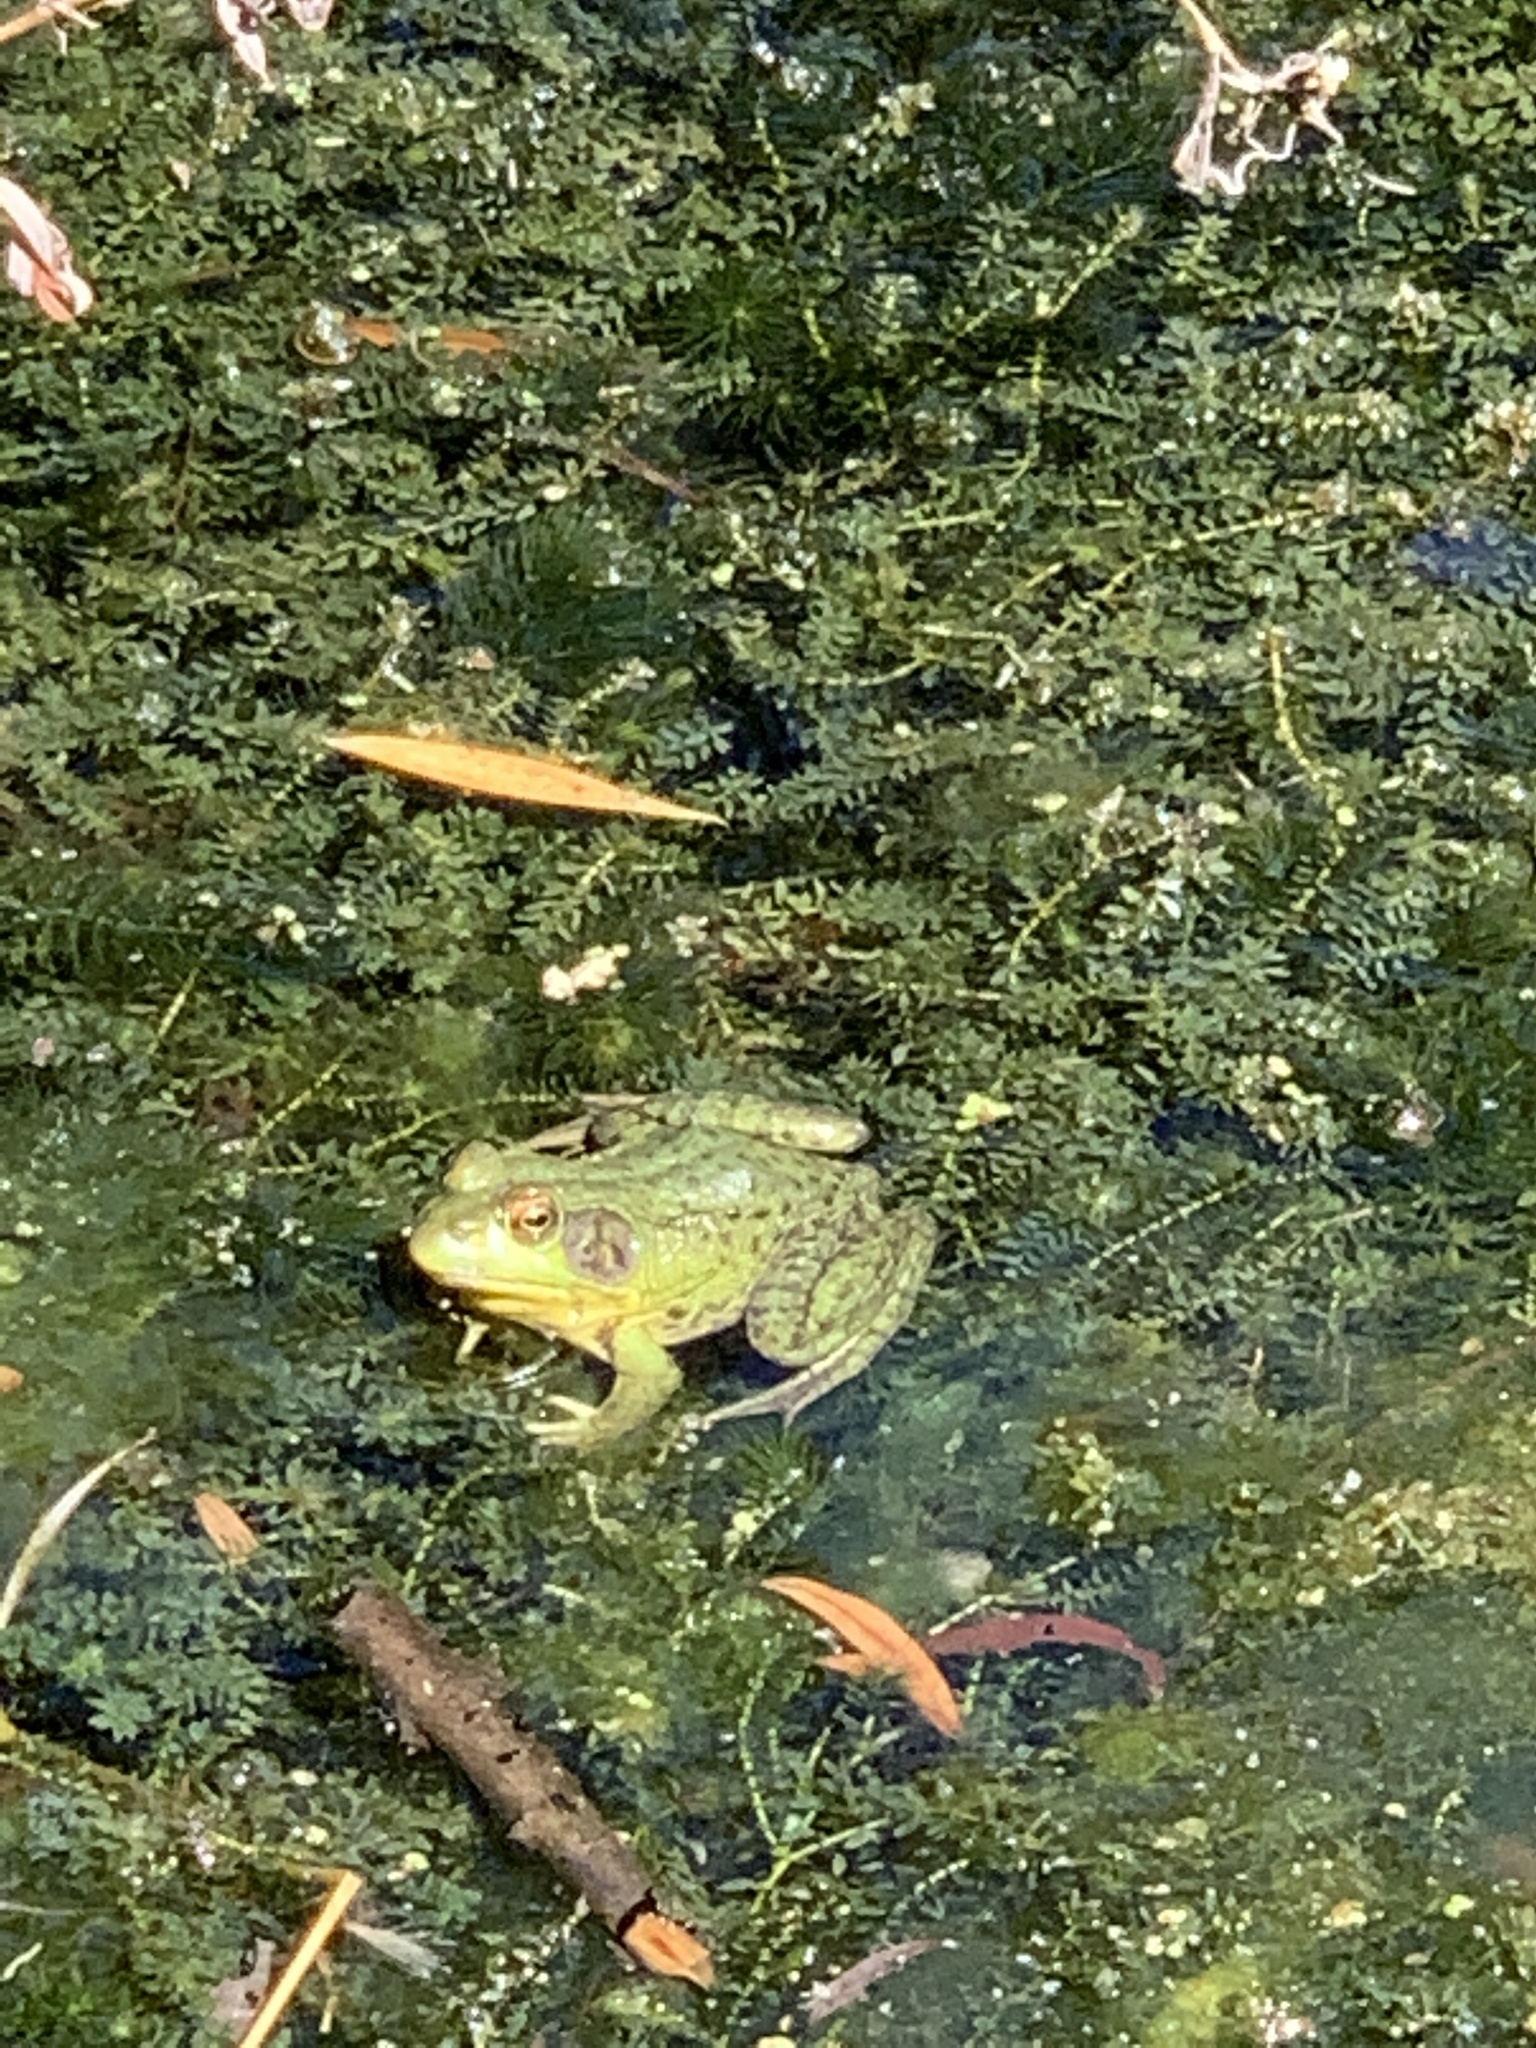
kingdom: Animalia
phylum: Chordata
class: Amphibia
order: Anura
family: Ranidae
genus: Lithobates
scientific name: Lithobates clamitans
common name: Green frog
